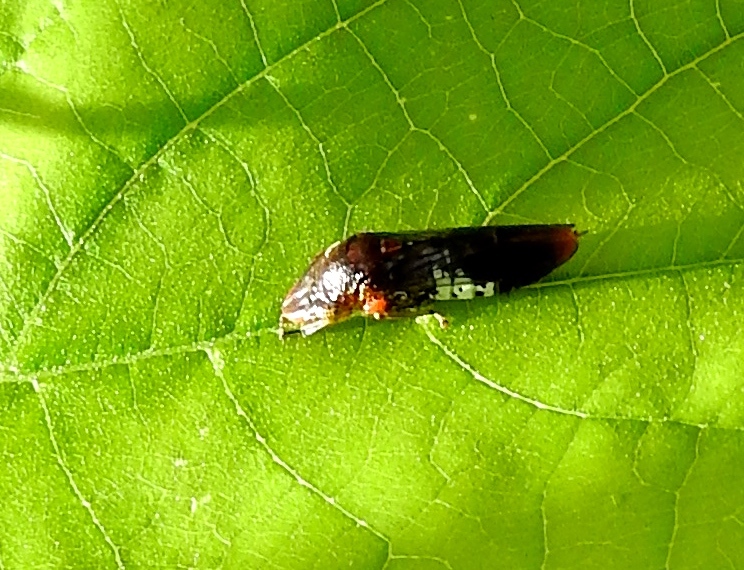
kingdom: Animalia
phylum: Arthropoda
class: Insecta
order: Hemiptera
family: Cicadellidae
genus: Homalodisca
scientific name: Homalodisca ichthyocephala
